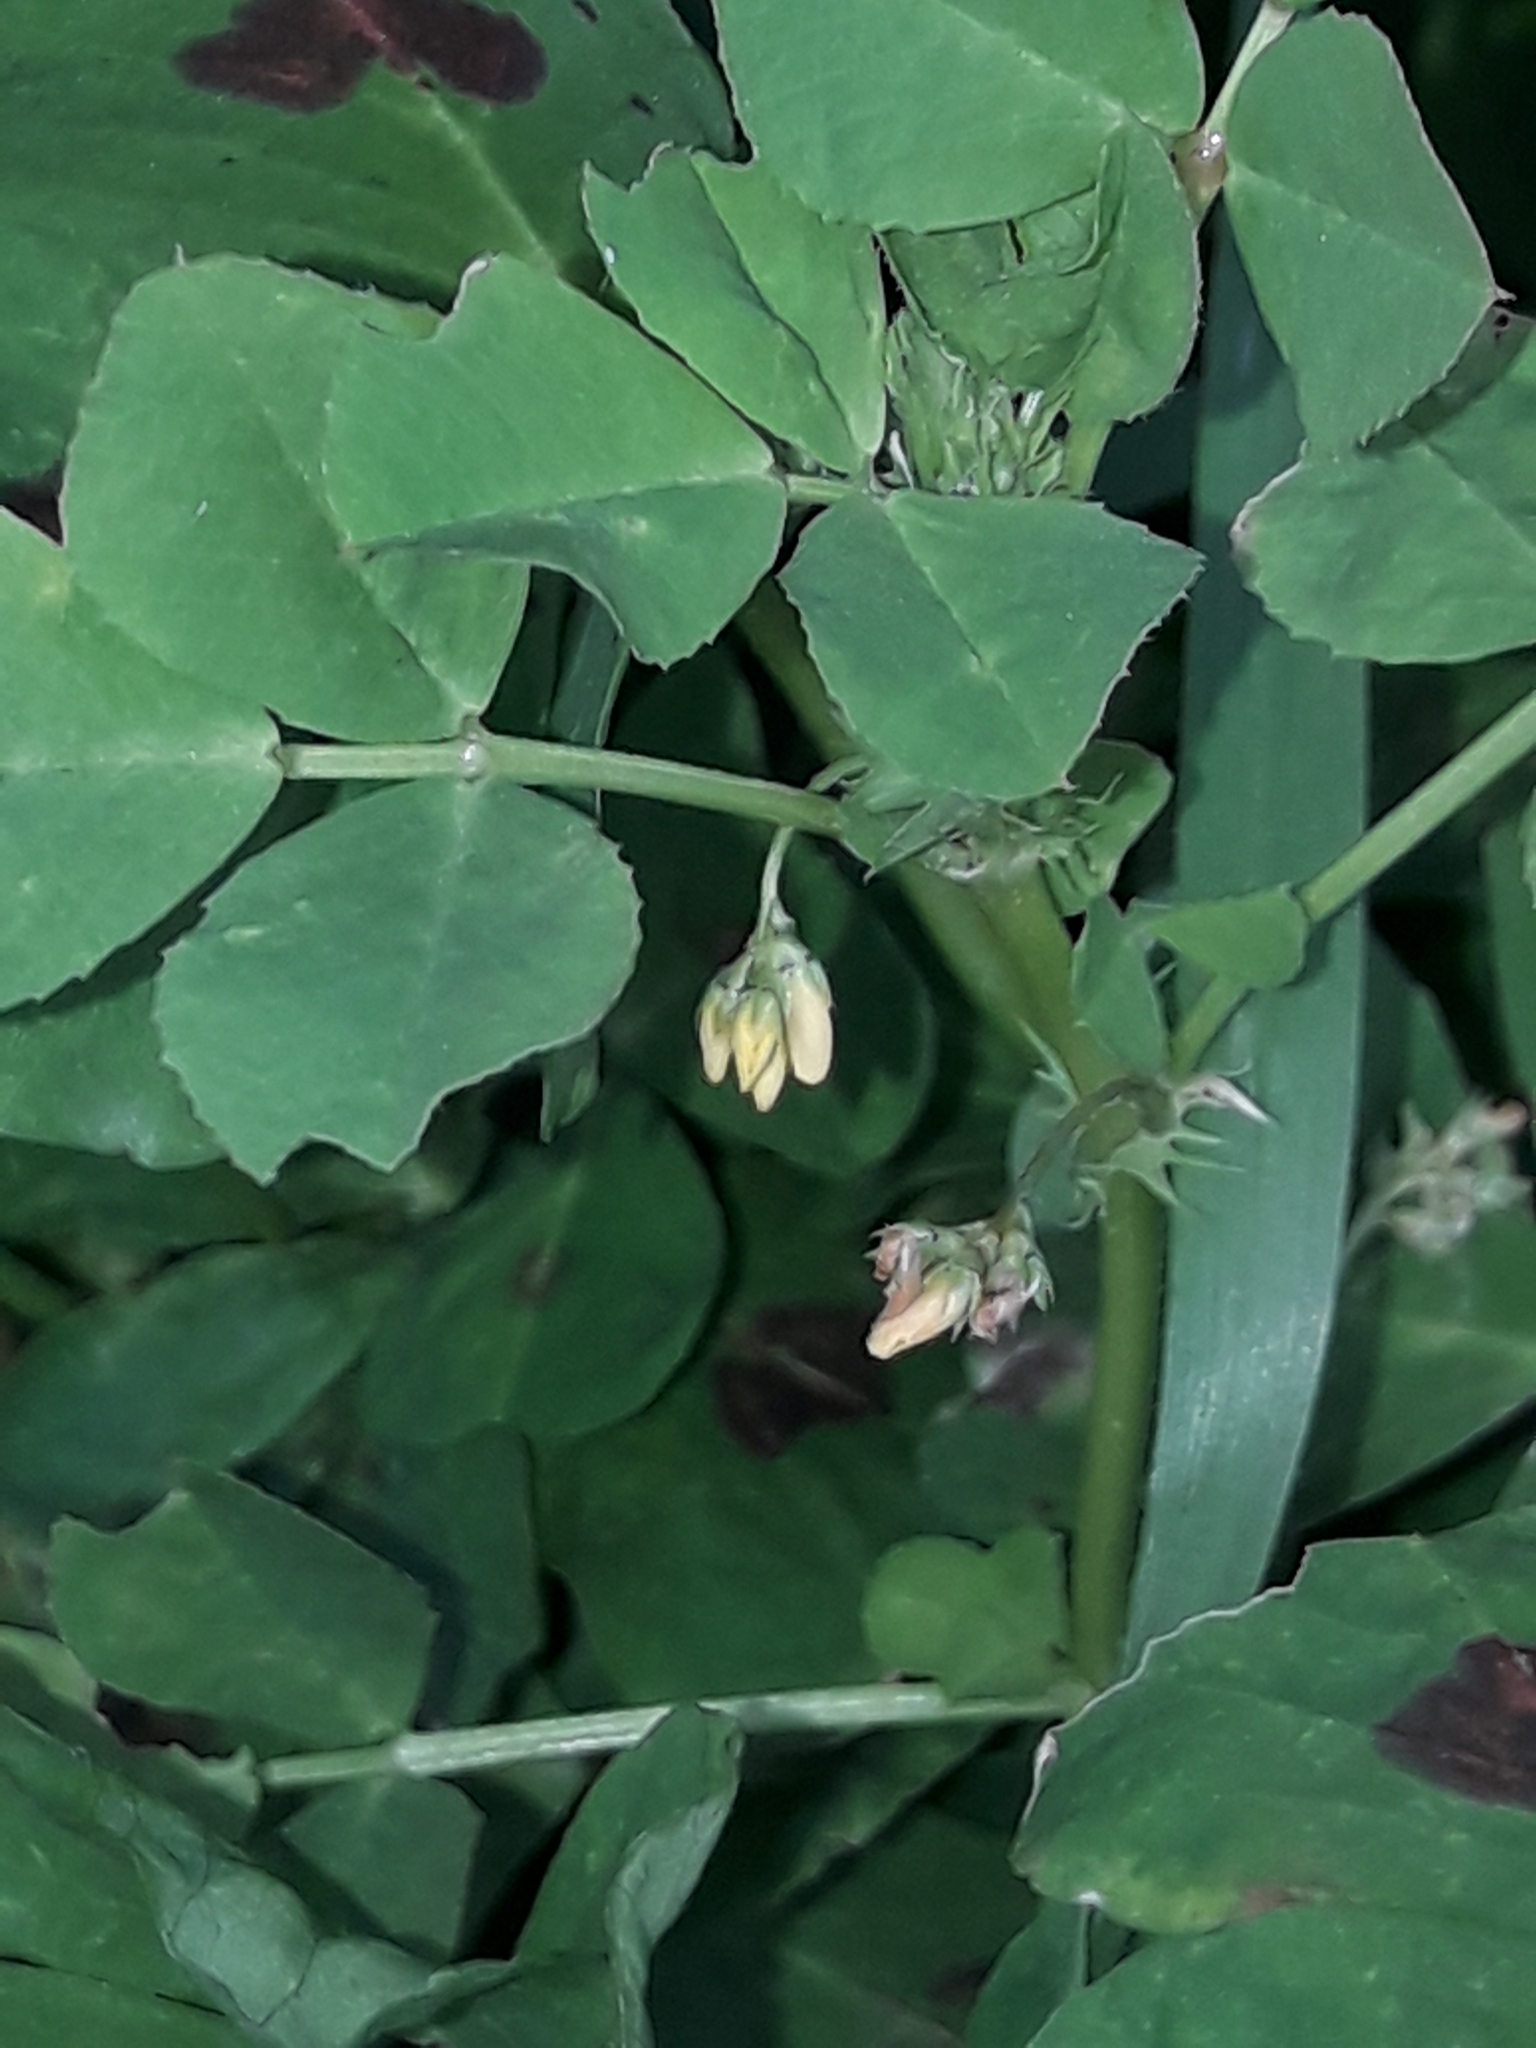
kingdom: Plantae
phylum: Tracheophyta
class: Magnoliopsida
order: Fabales
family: Fabaceae
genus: Medicago
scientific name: Medicago arabica
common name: Spotted medick
